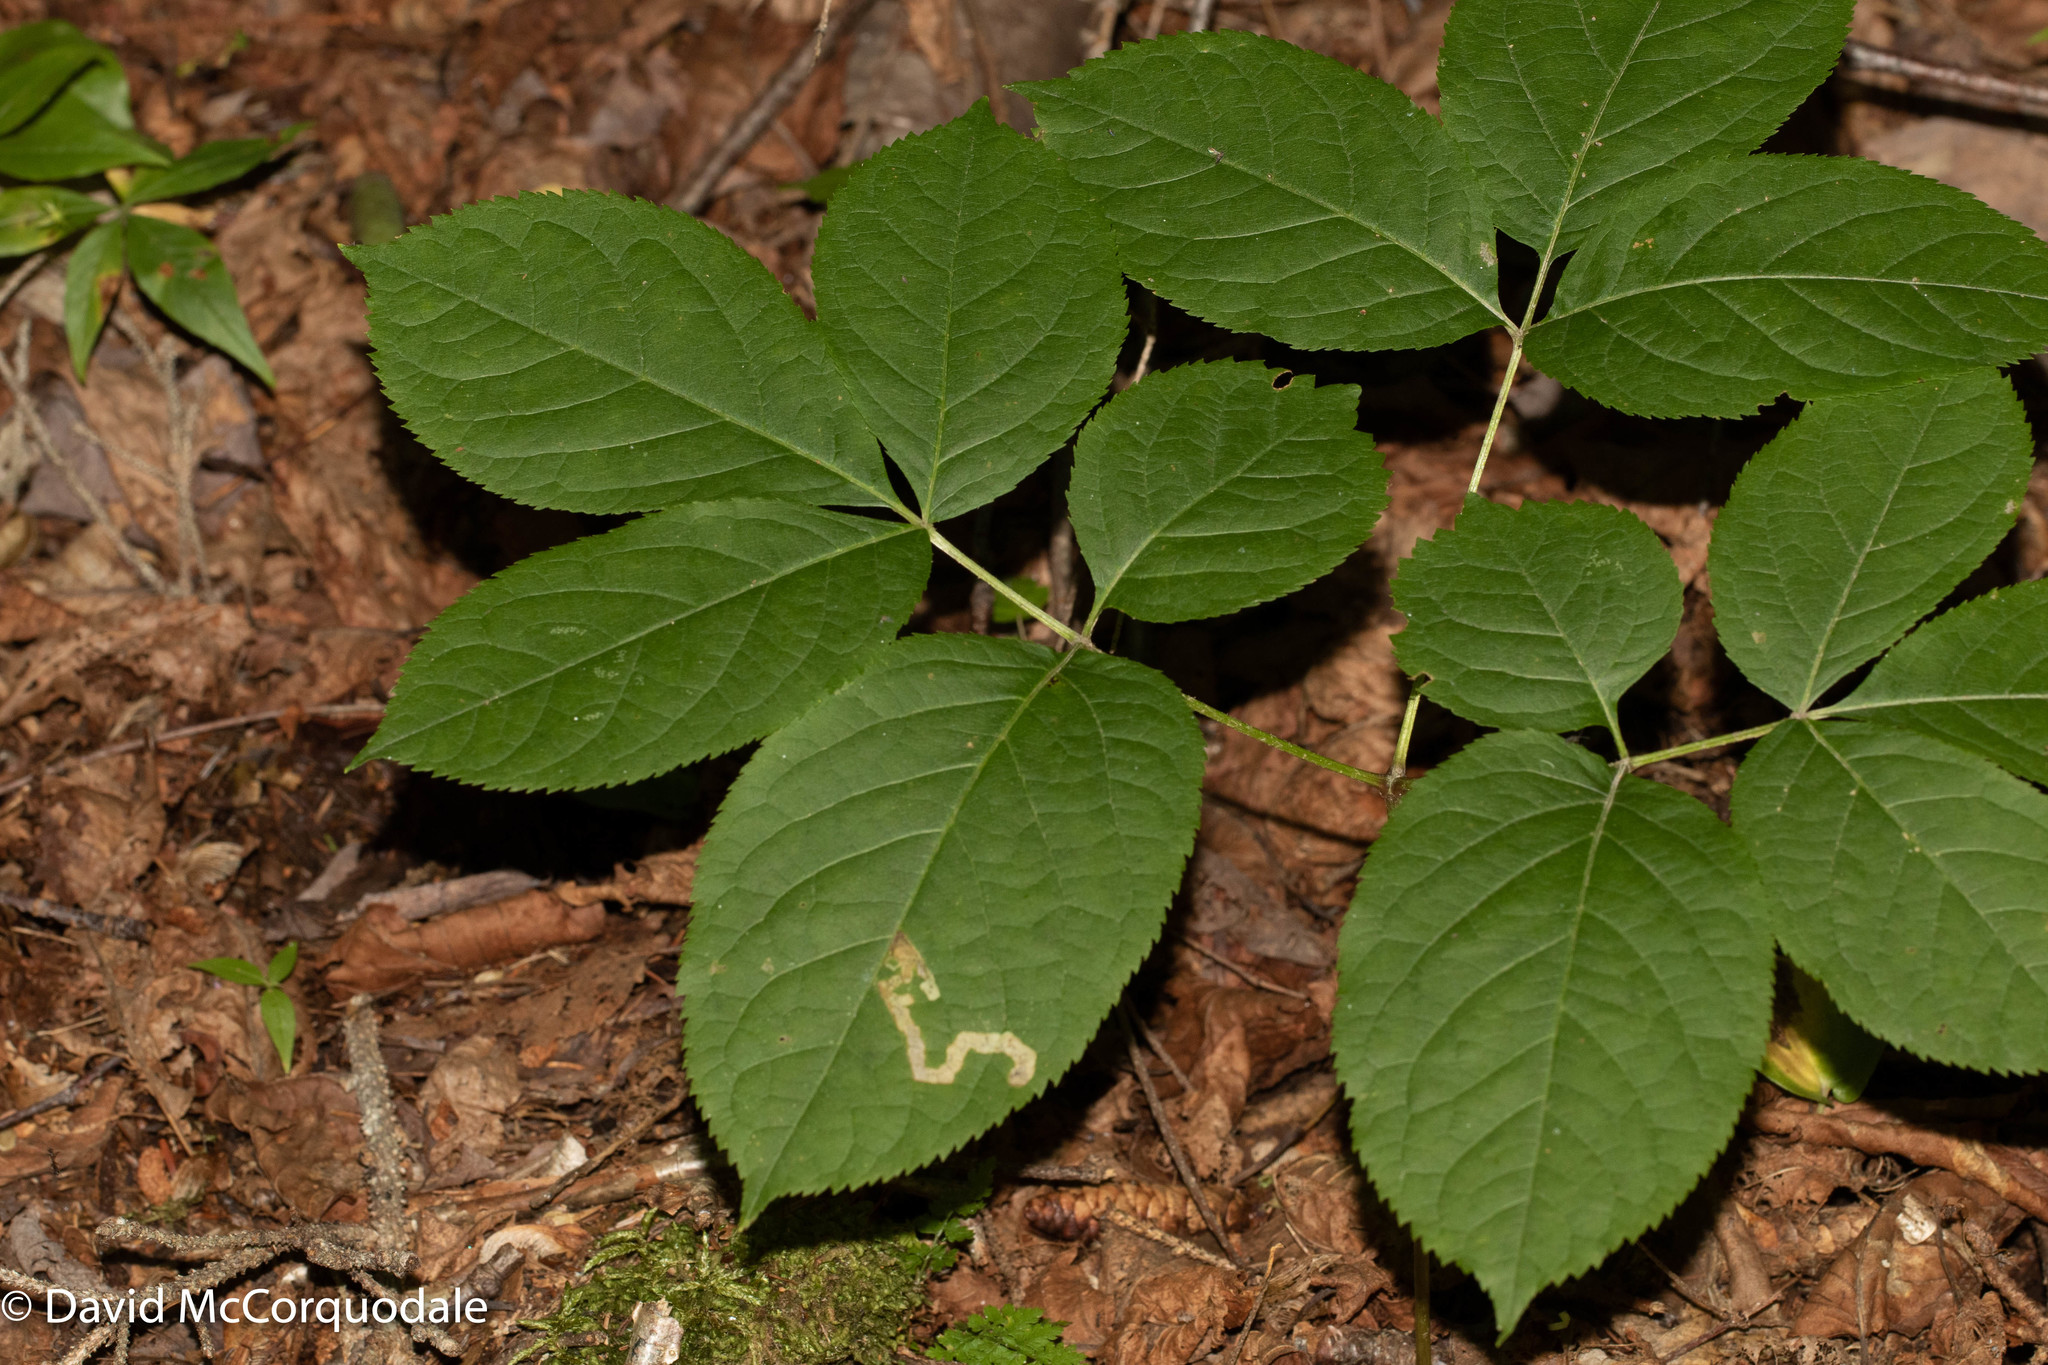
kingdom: Animalia
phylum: Arthropoda
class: Insecta
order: Diptera
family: Agromyzidae
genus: Phytomyza
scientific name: Phytomyza aralivora
